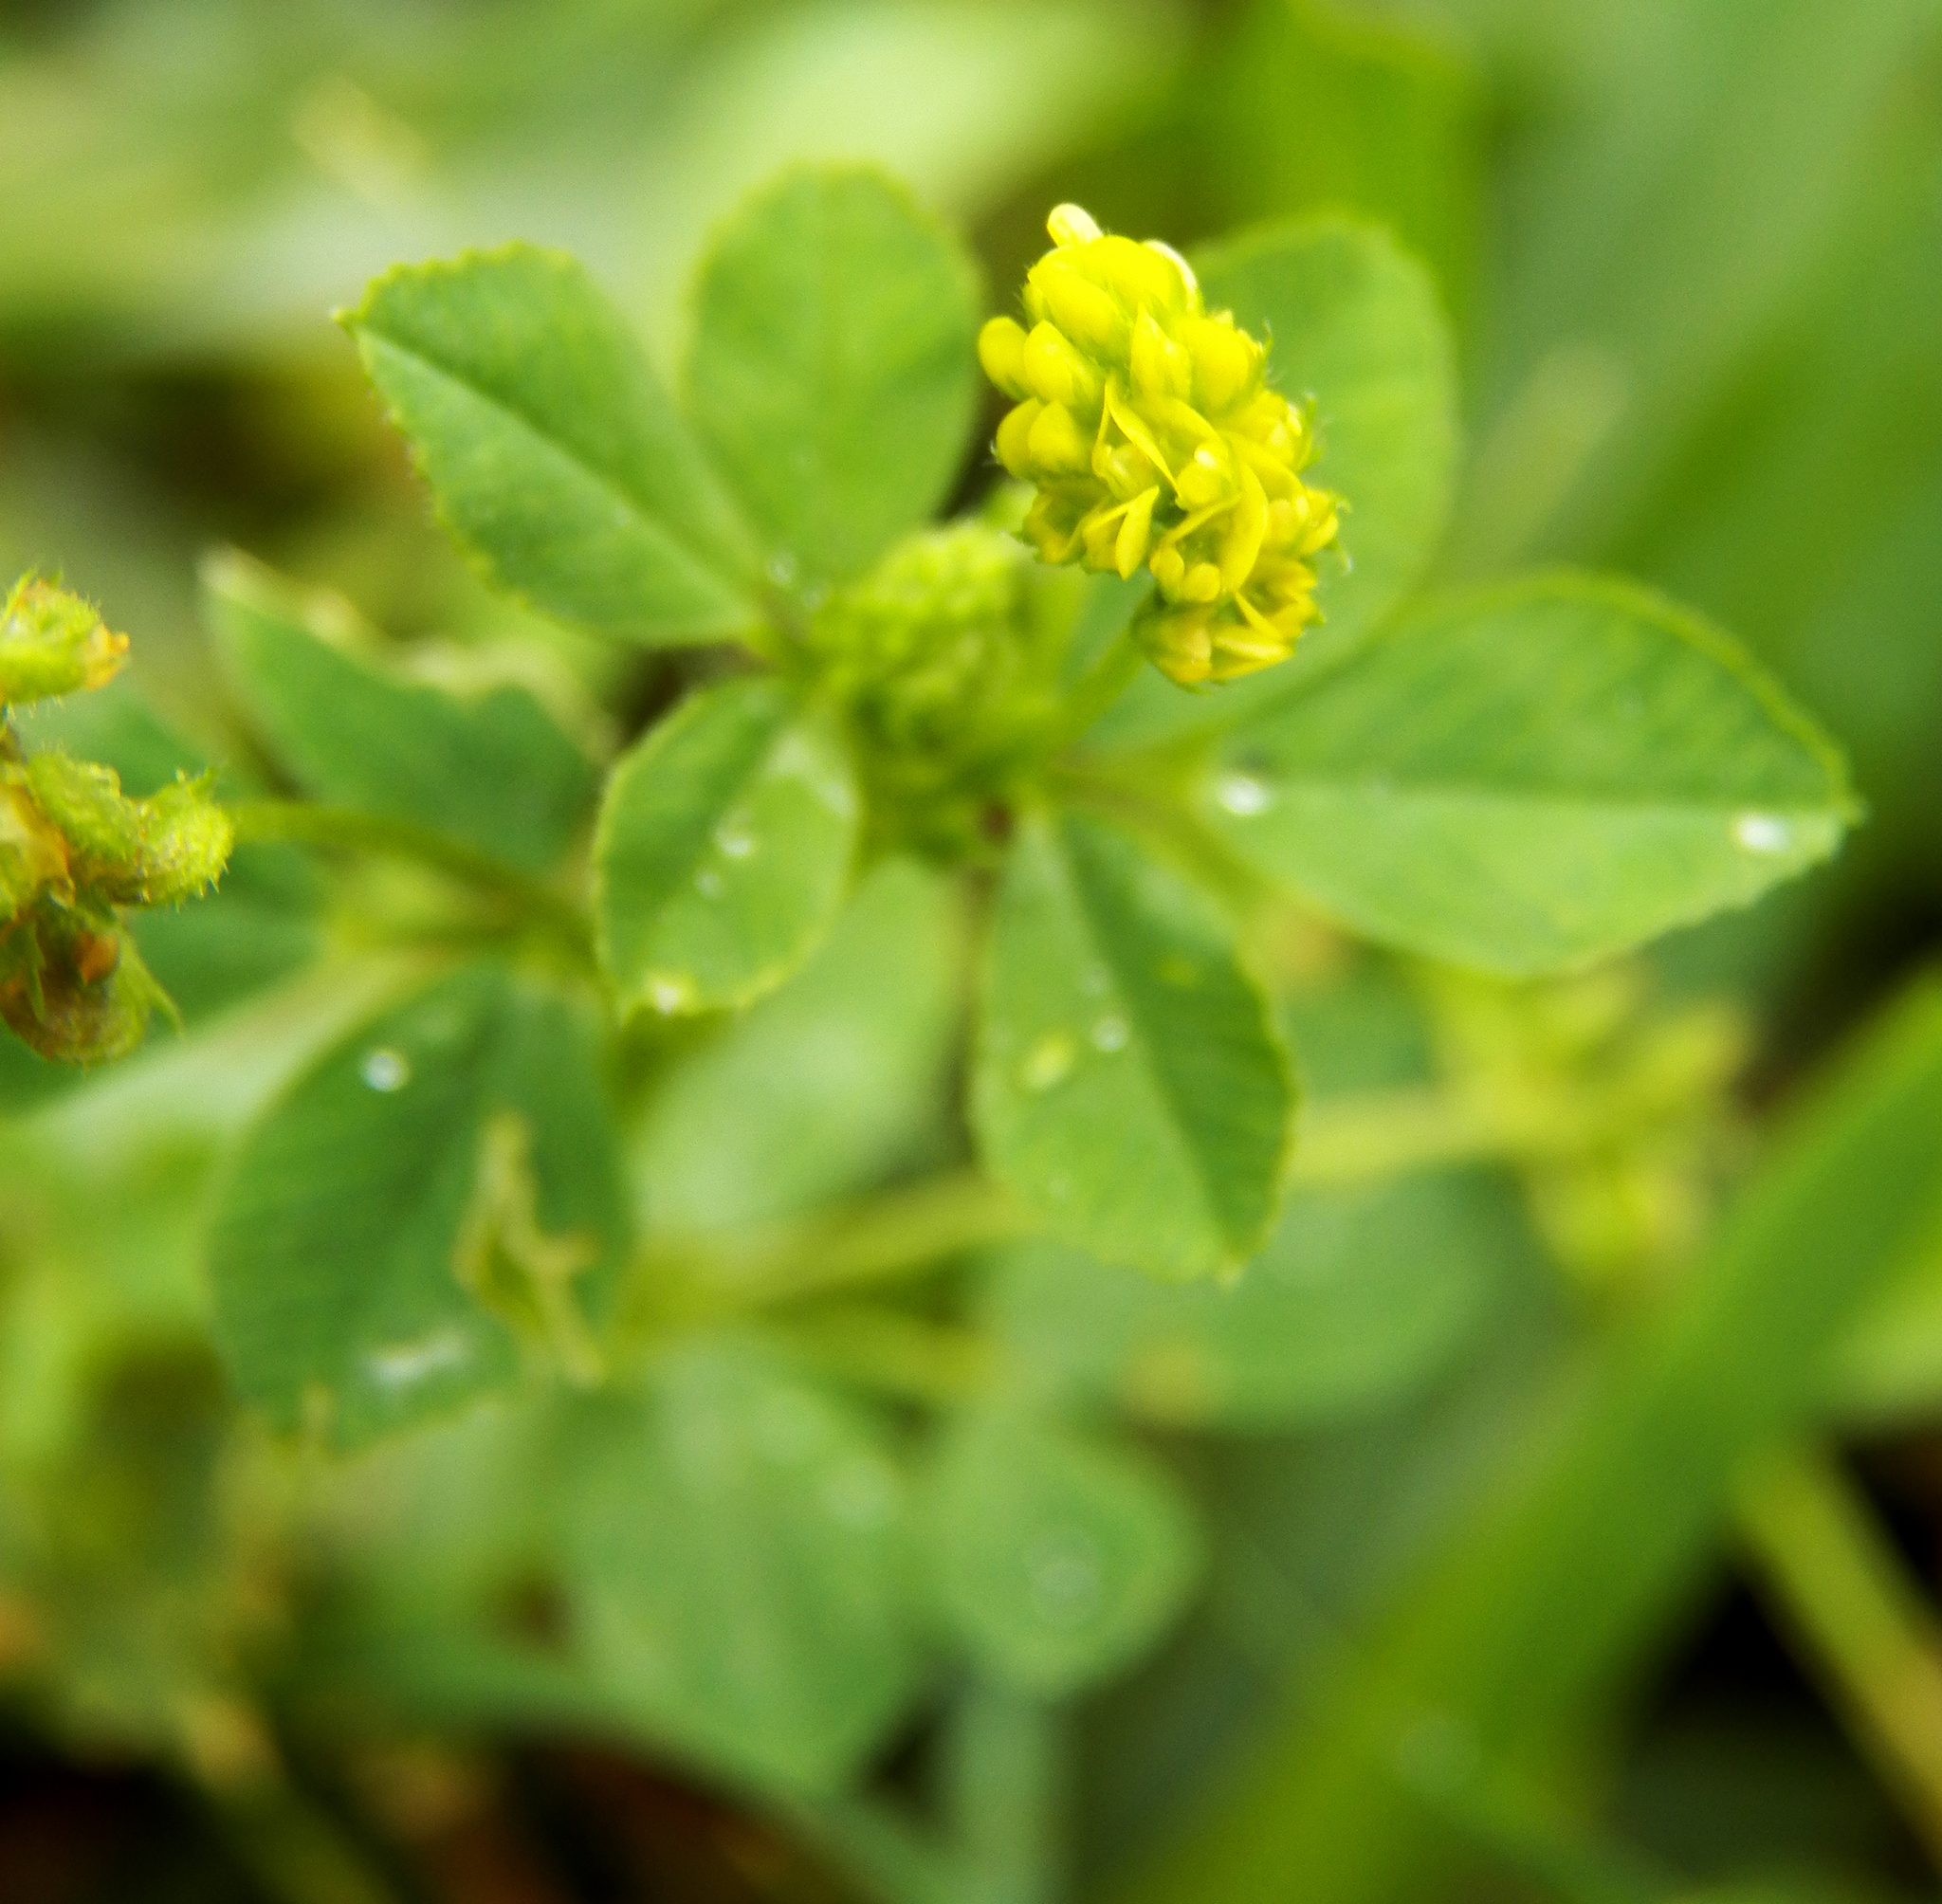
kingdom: Plantae
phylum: Tracheophyta
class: Magnoliopsida
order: Fabales
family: Fabaceae
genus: Medicago
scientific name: Medicago lupulina
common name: Black medick
